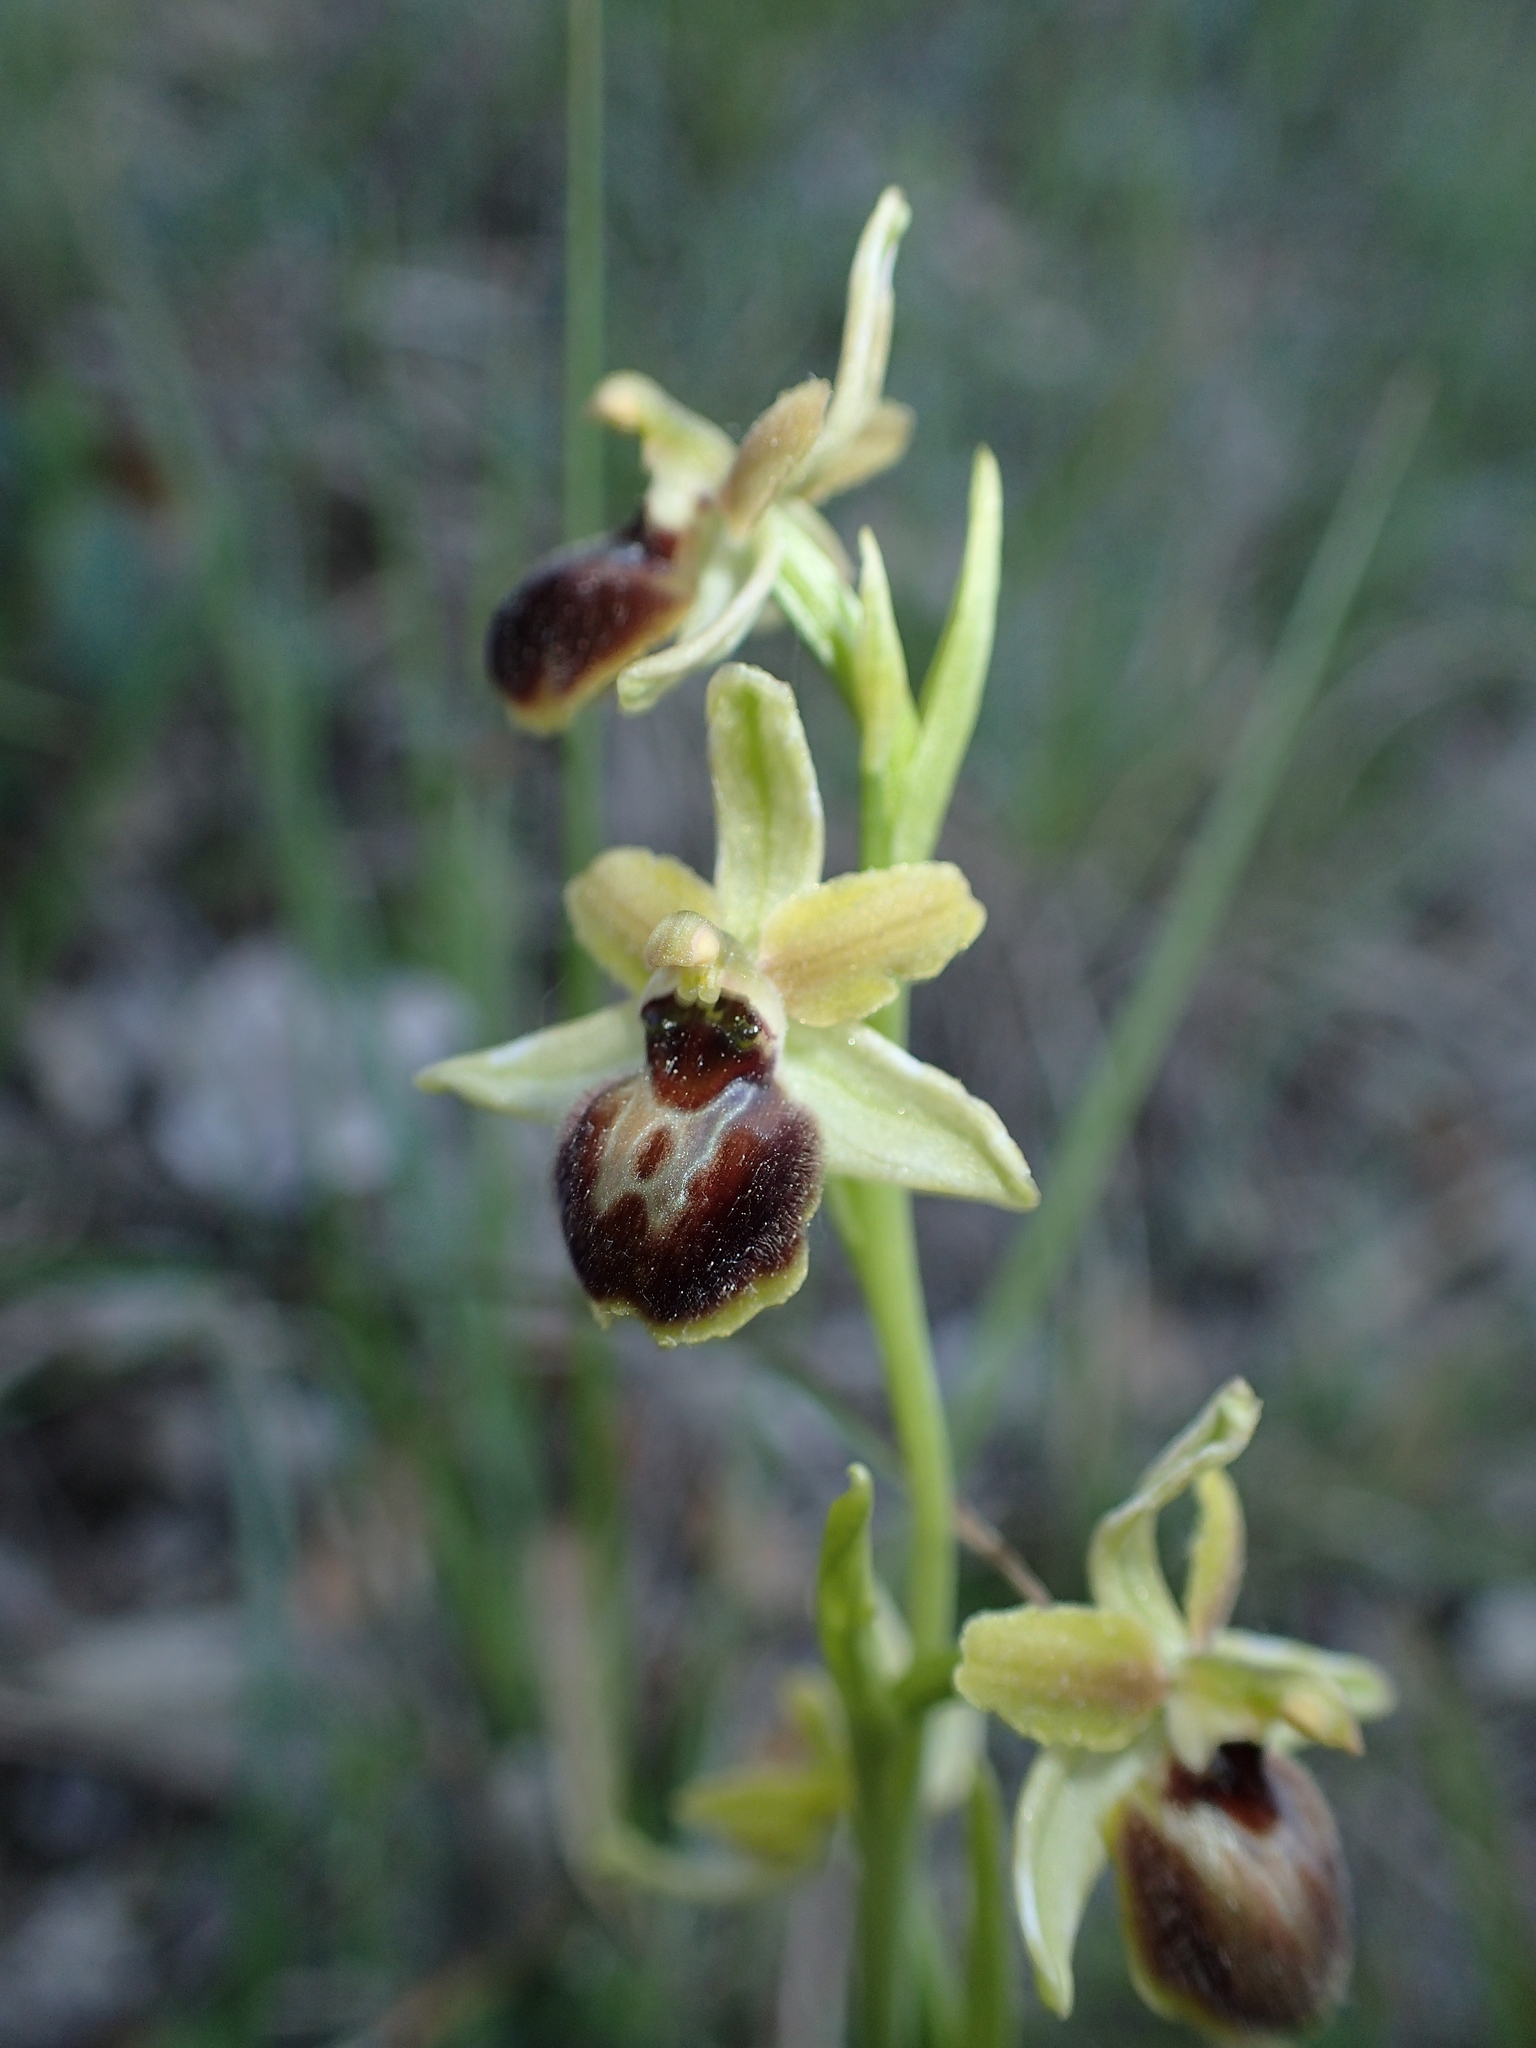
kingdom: Plantae
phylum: Tracheophyta
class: Liliopsida
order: Asparagales
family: Orchidaceae
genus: Ophrys
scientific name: Ophrys araneola
